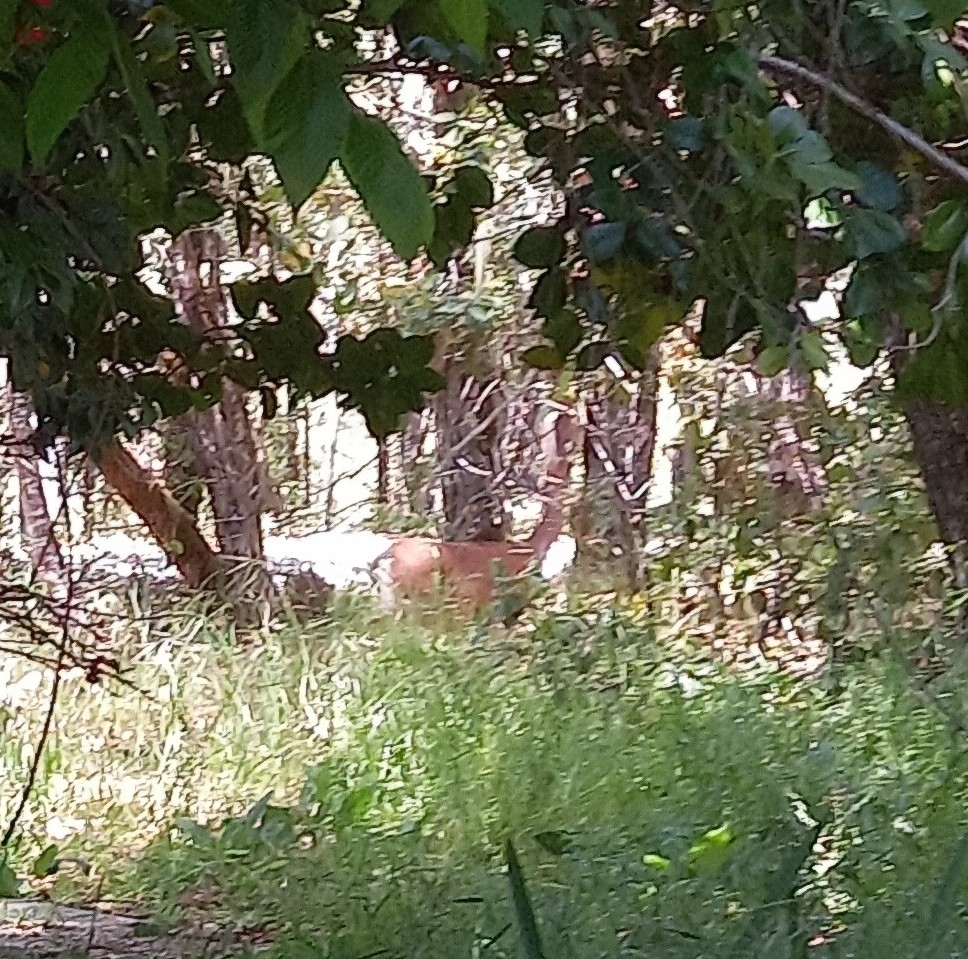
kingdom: Animalia
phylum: Chordata
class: Mammalia
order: Artiodactyla
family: Cervidae
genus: Odocoileus
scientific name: Odocoileus hemionus
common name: Mule deer
